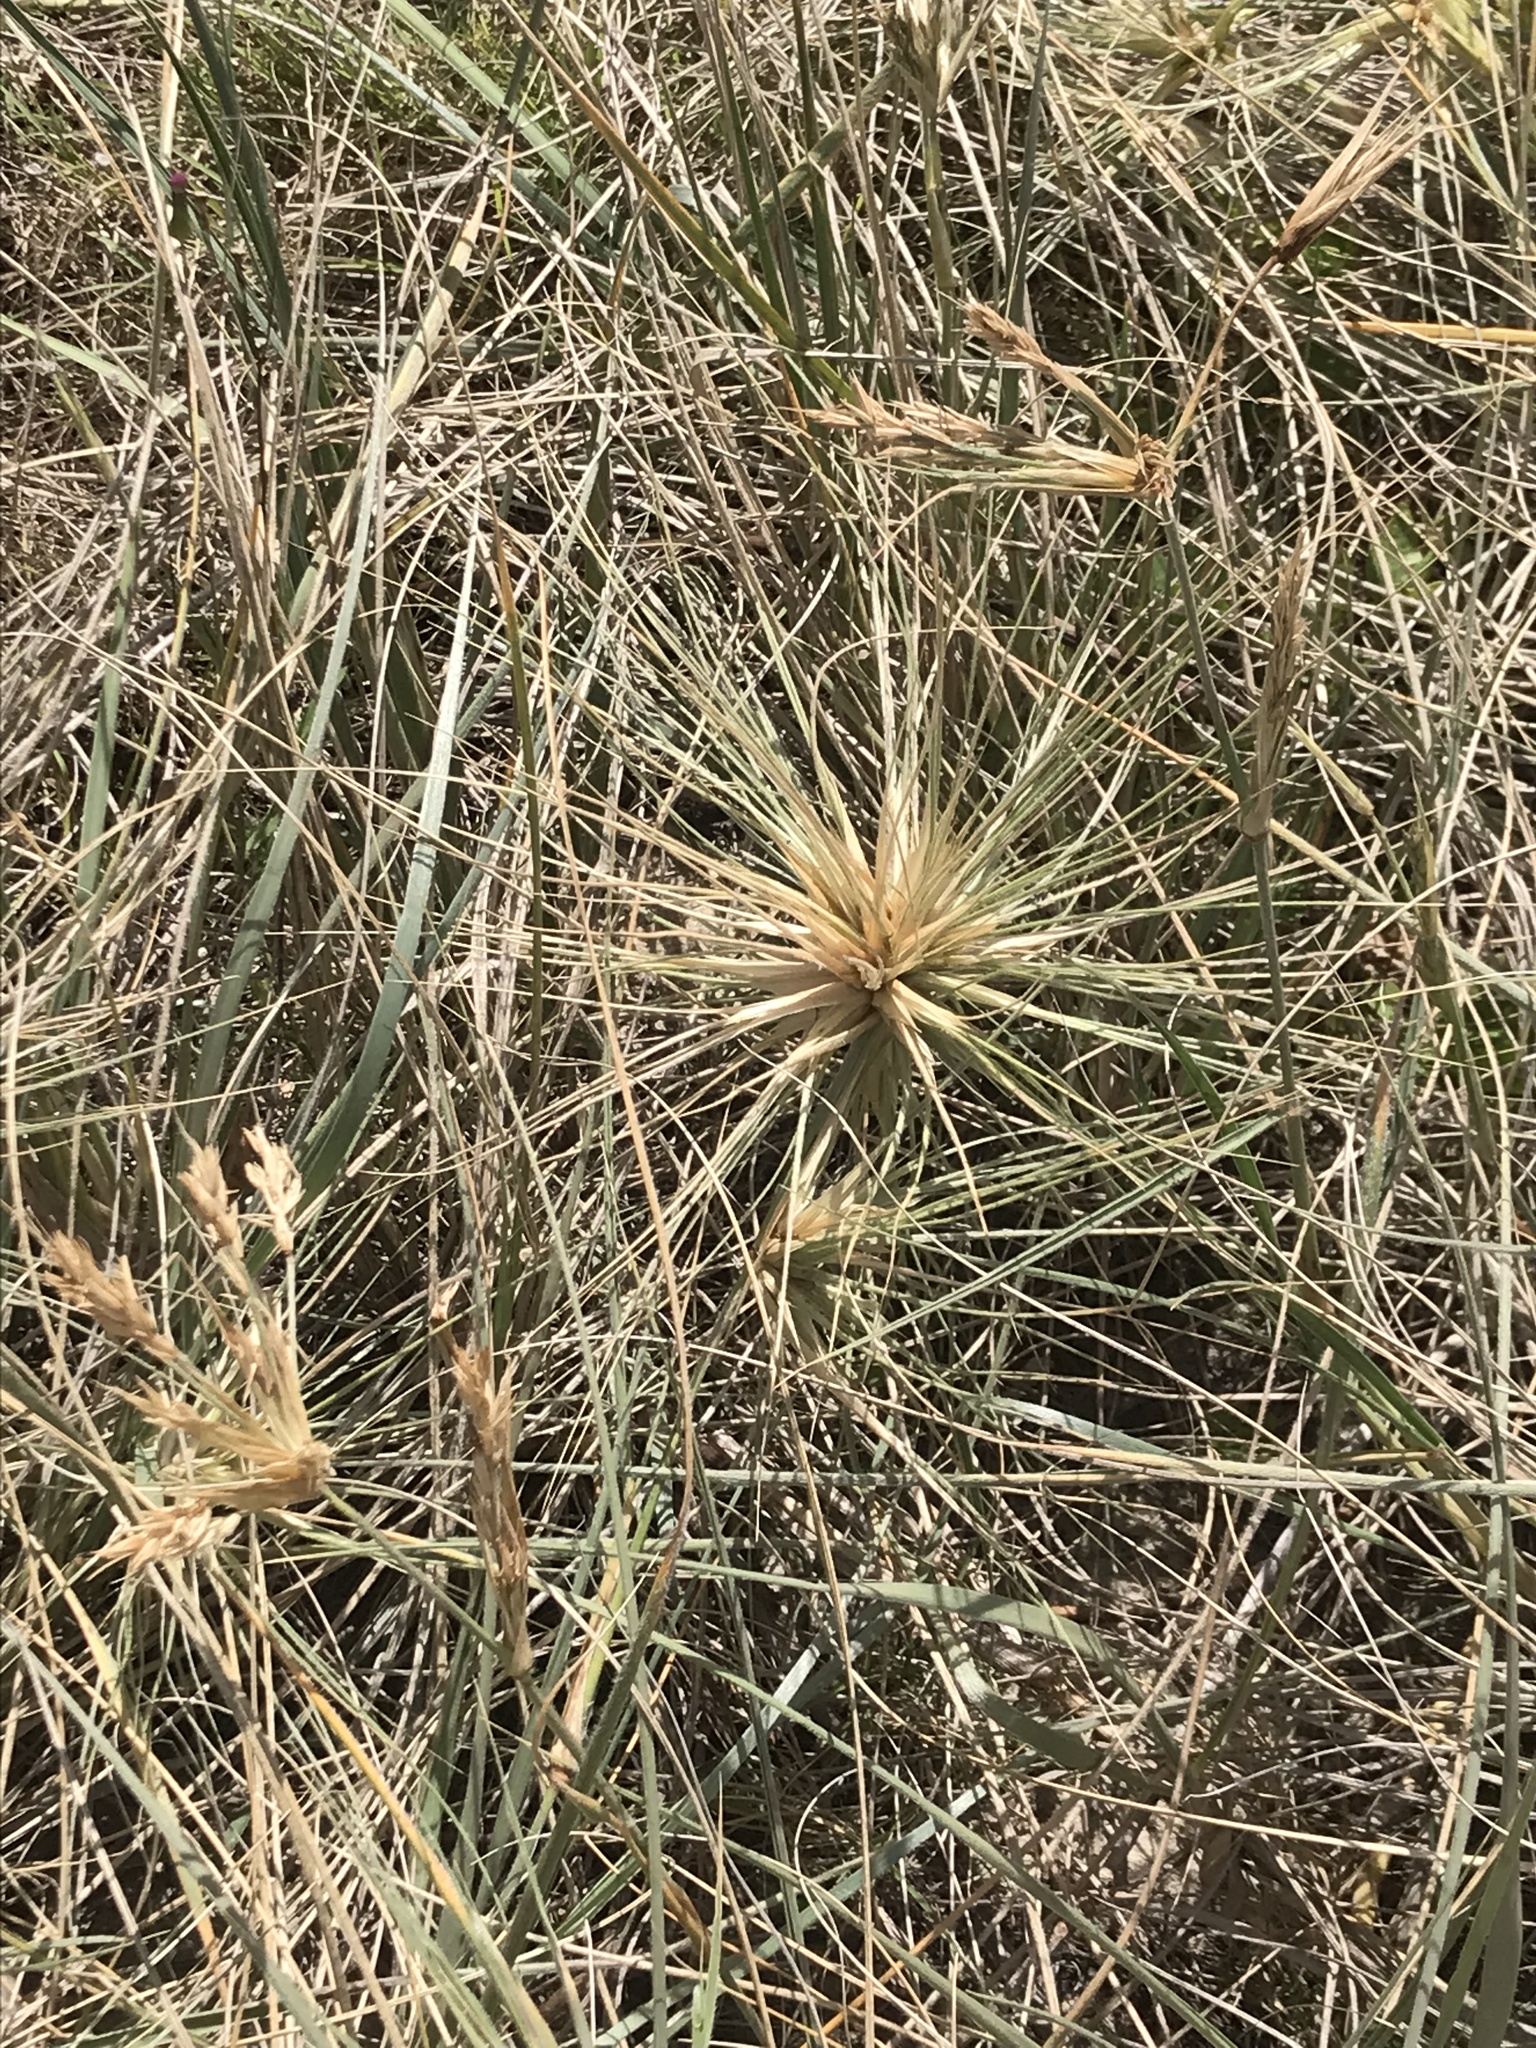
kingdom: Plantae
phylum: Tracheophyta
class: Liliopsida
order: Poales
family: Poaceae
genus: Spinifex
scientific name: Spinifex sericeus
